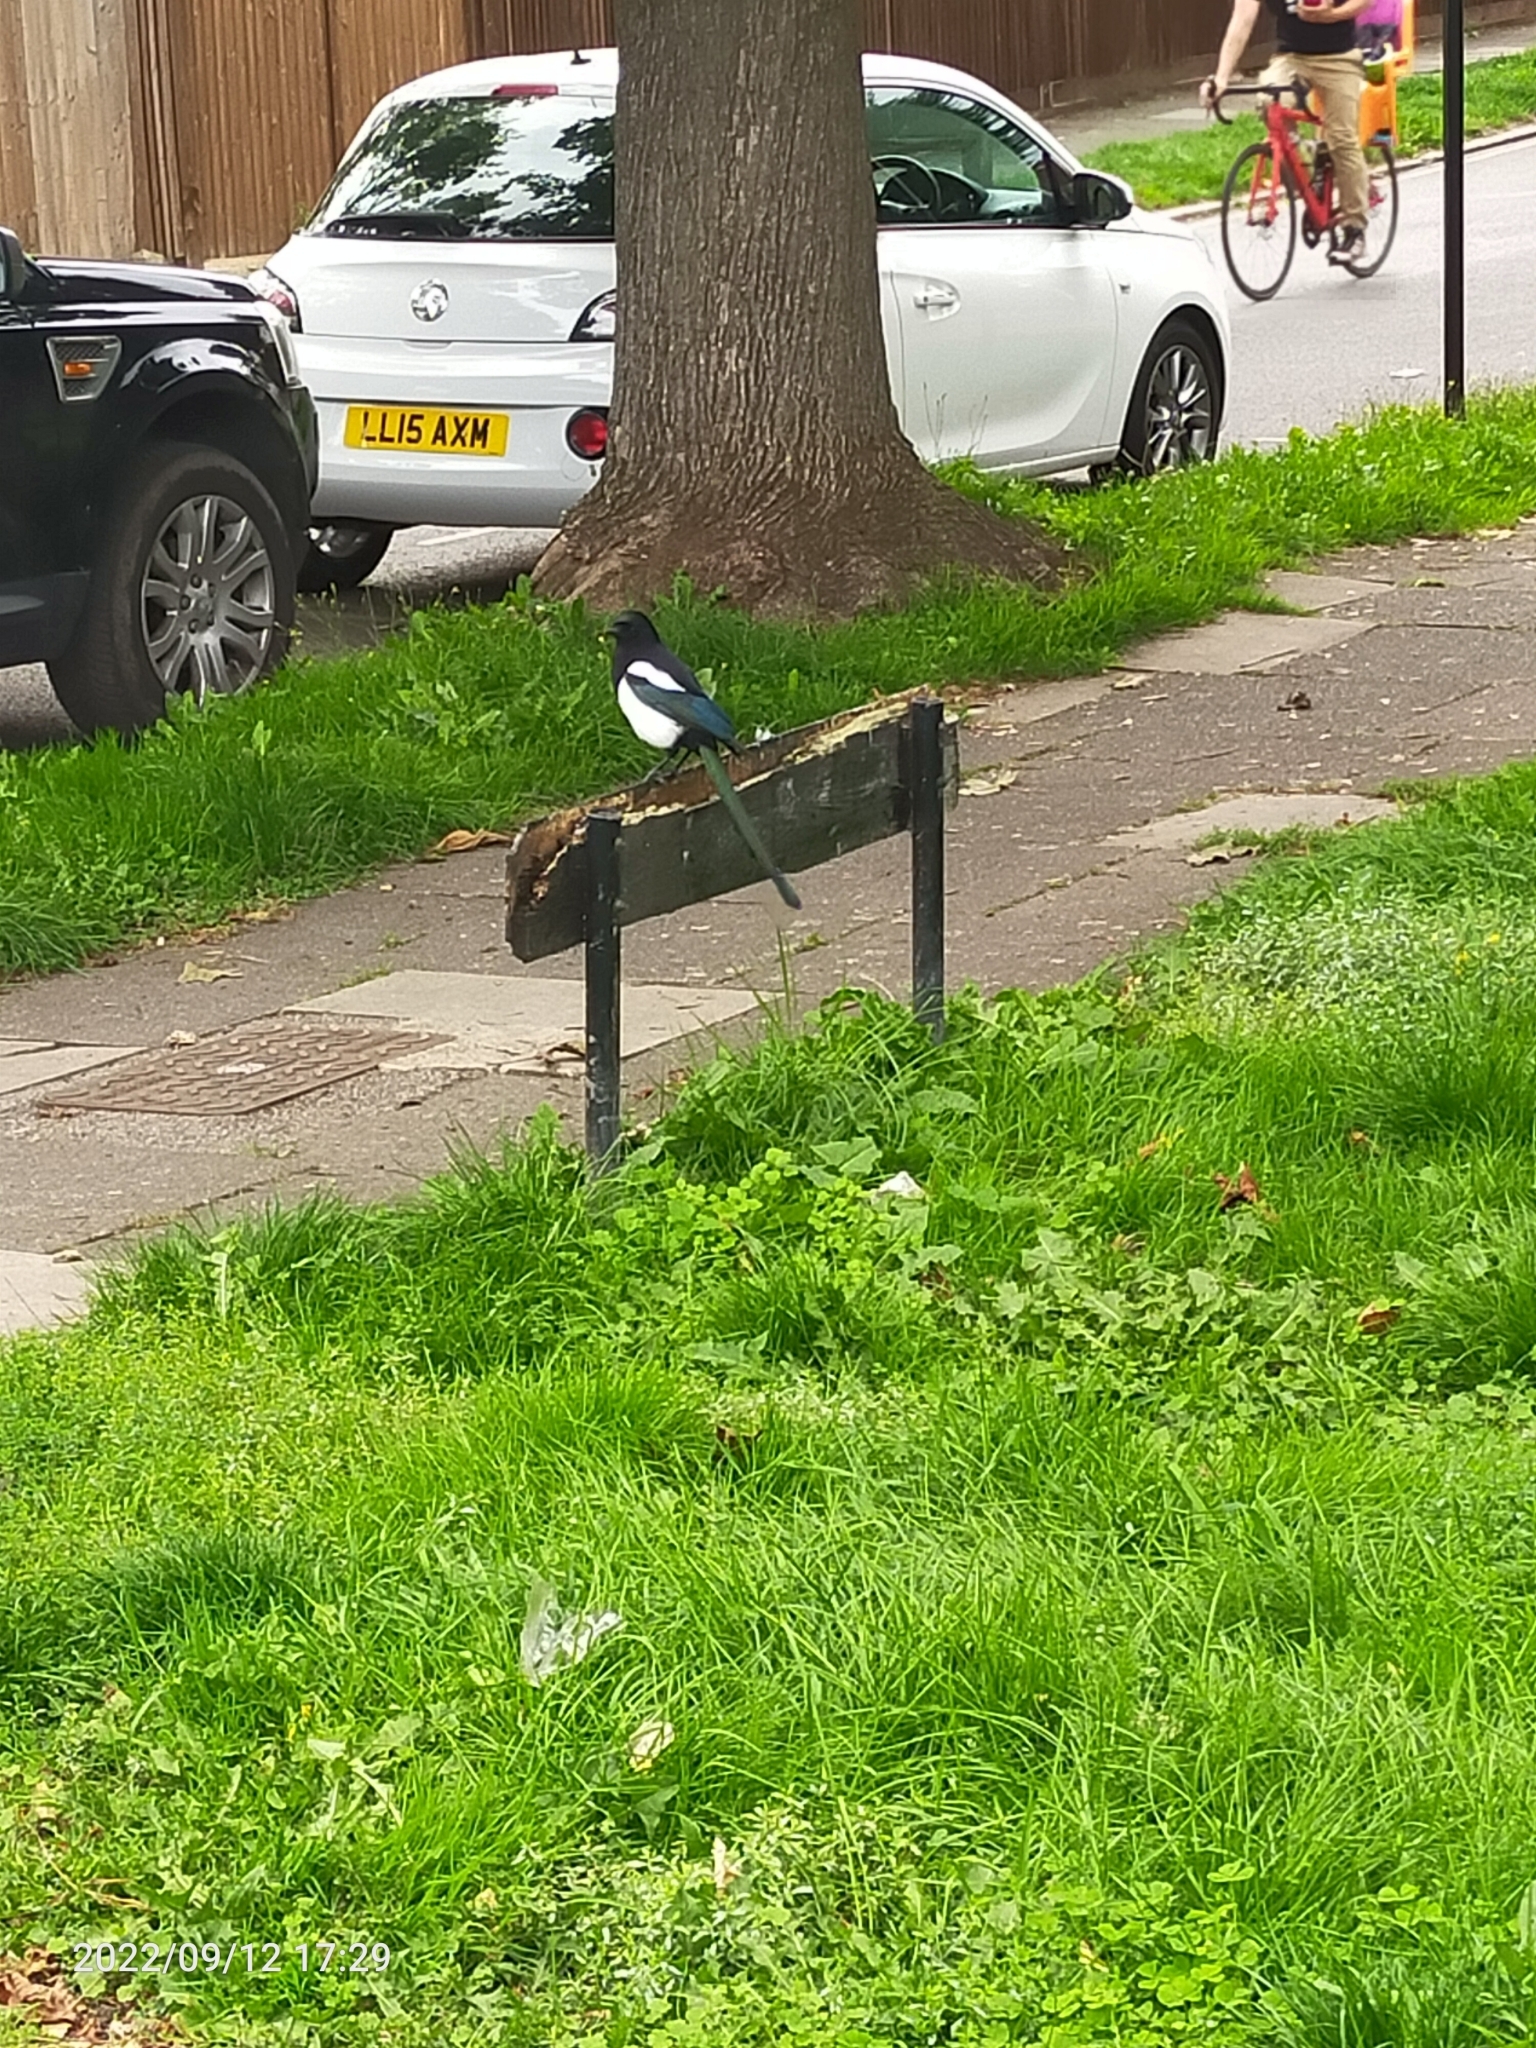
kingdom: Animalia
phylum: Chordata
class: Aves
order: Passeriformes
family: Corvidae
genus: Pica
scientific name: Pica pica
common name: Eurasian magpie
